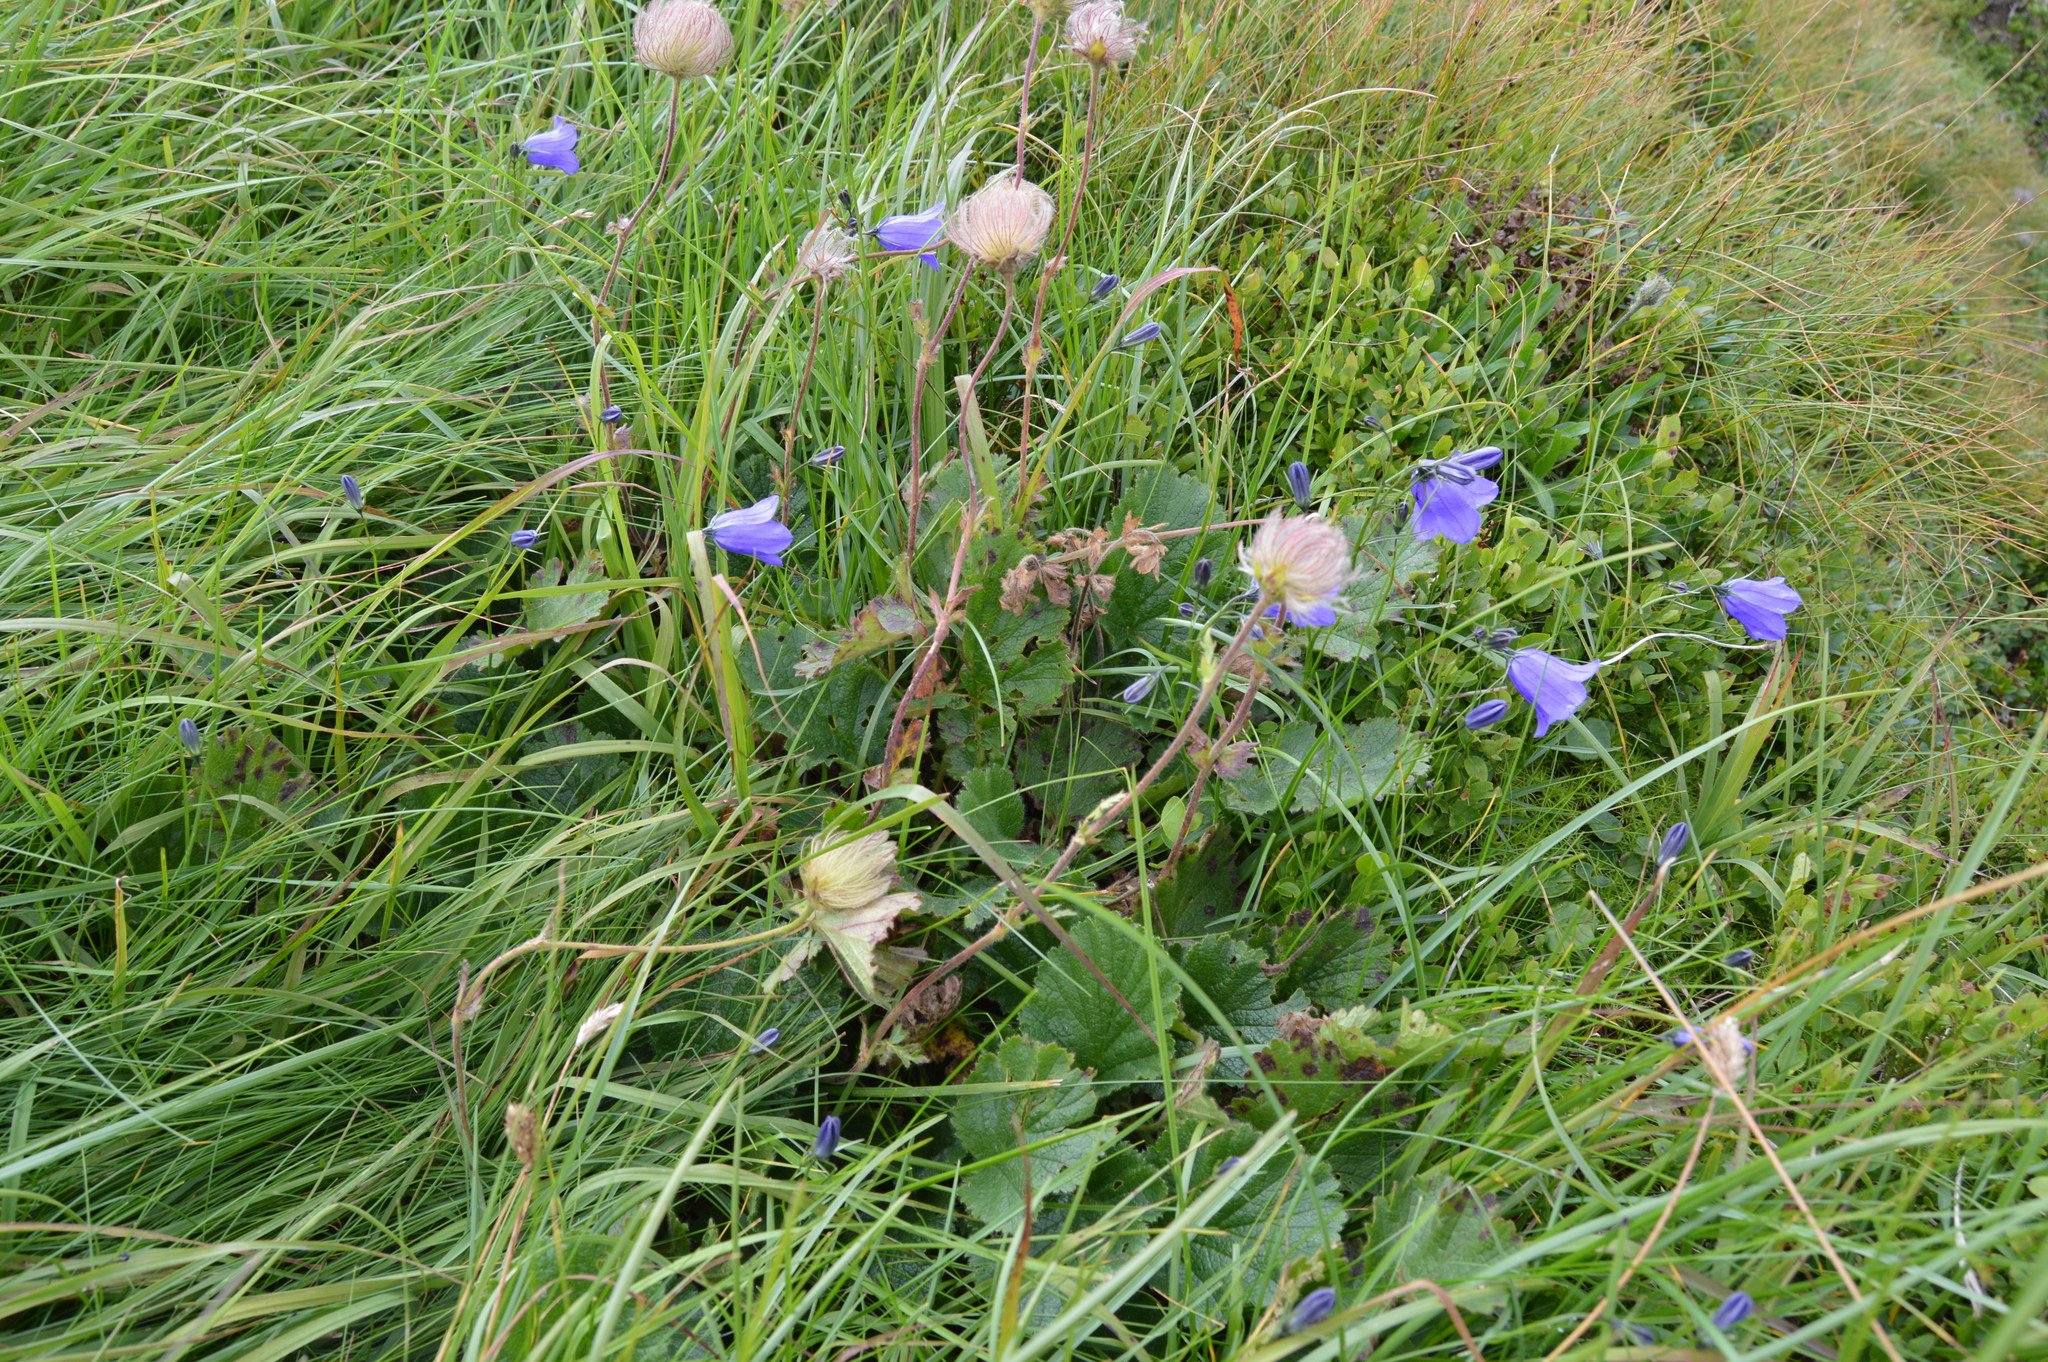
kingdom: Plantae
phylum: Tracheophyta
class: Magnoliopsida
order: Rosales
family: Rosaceae
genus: Geum
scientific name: Geum montanum
